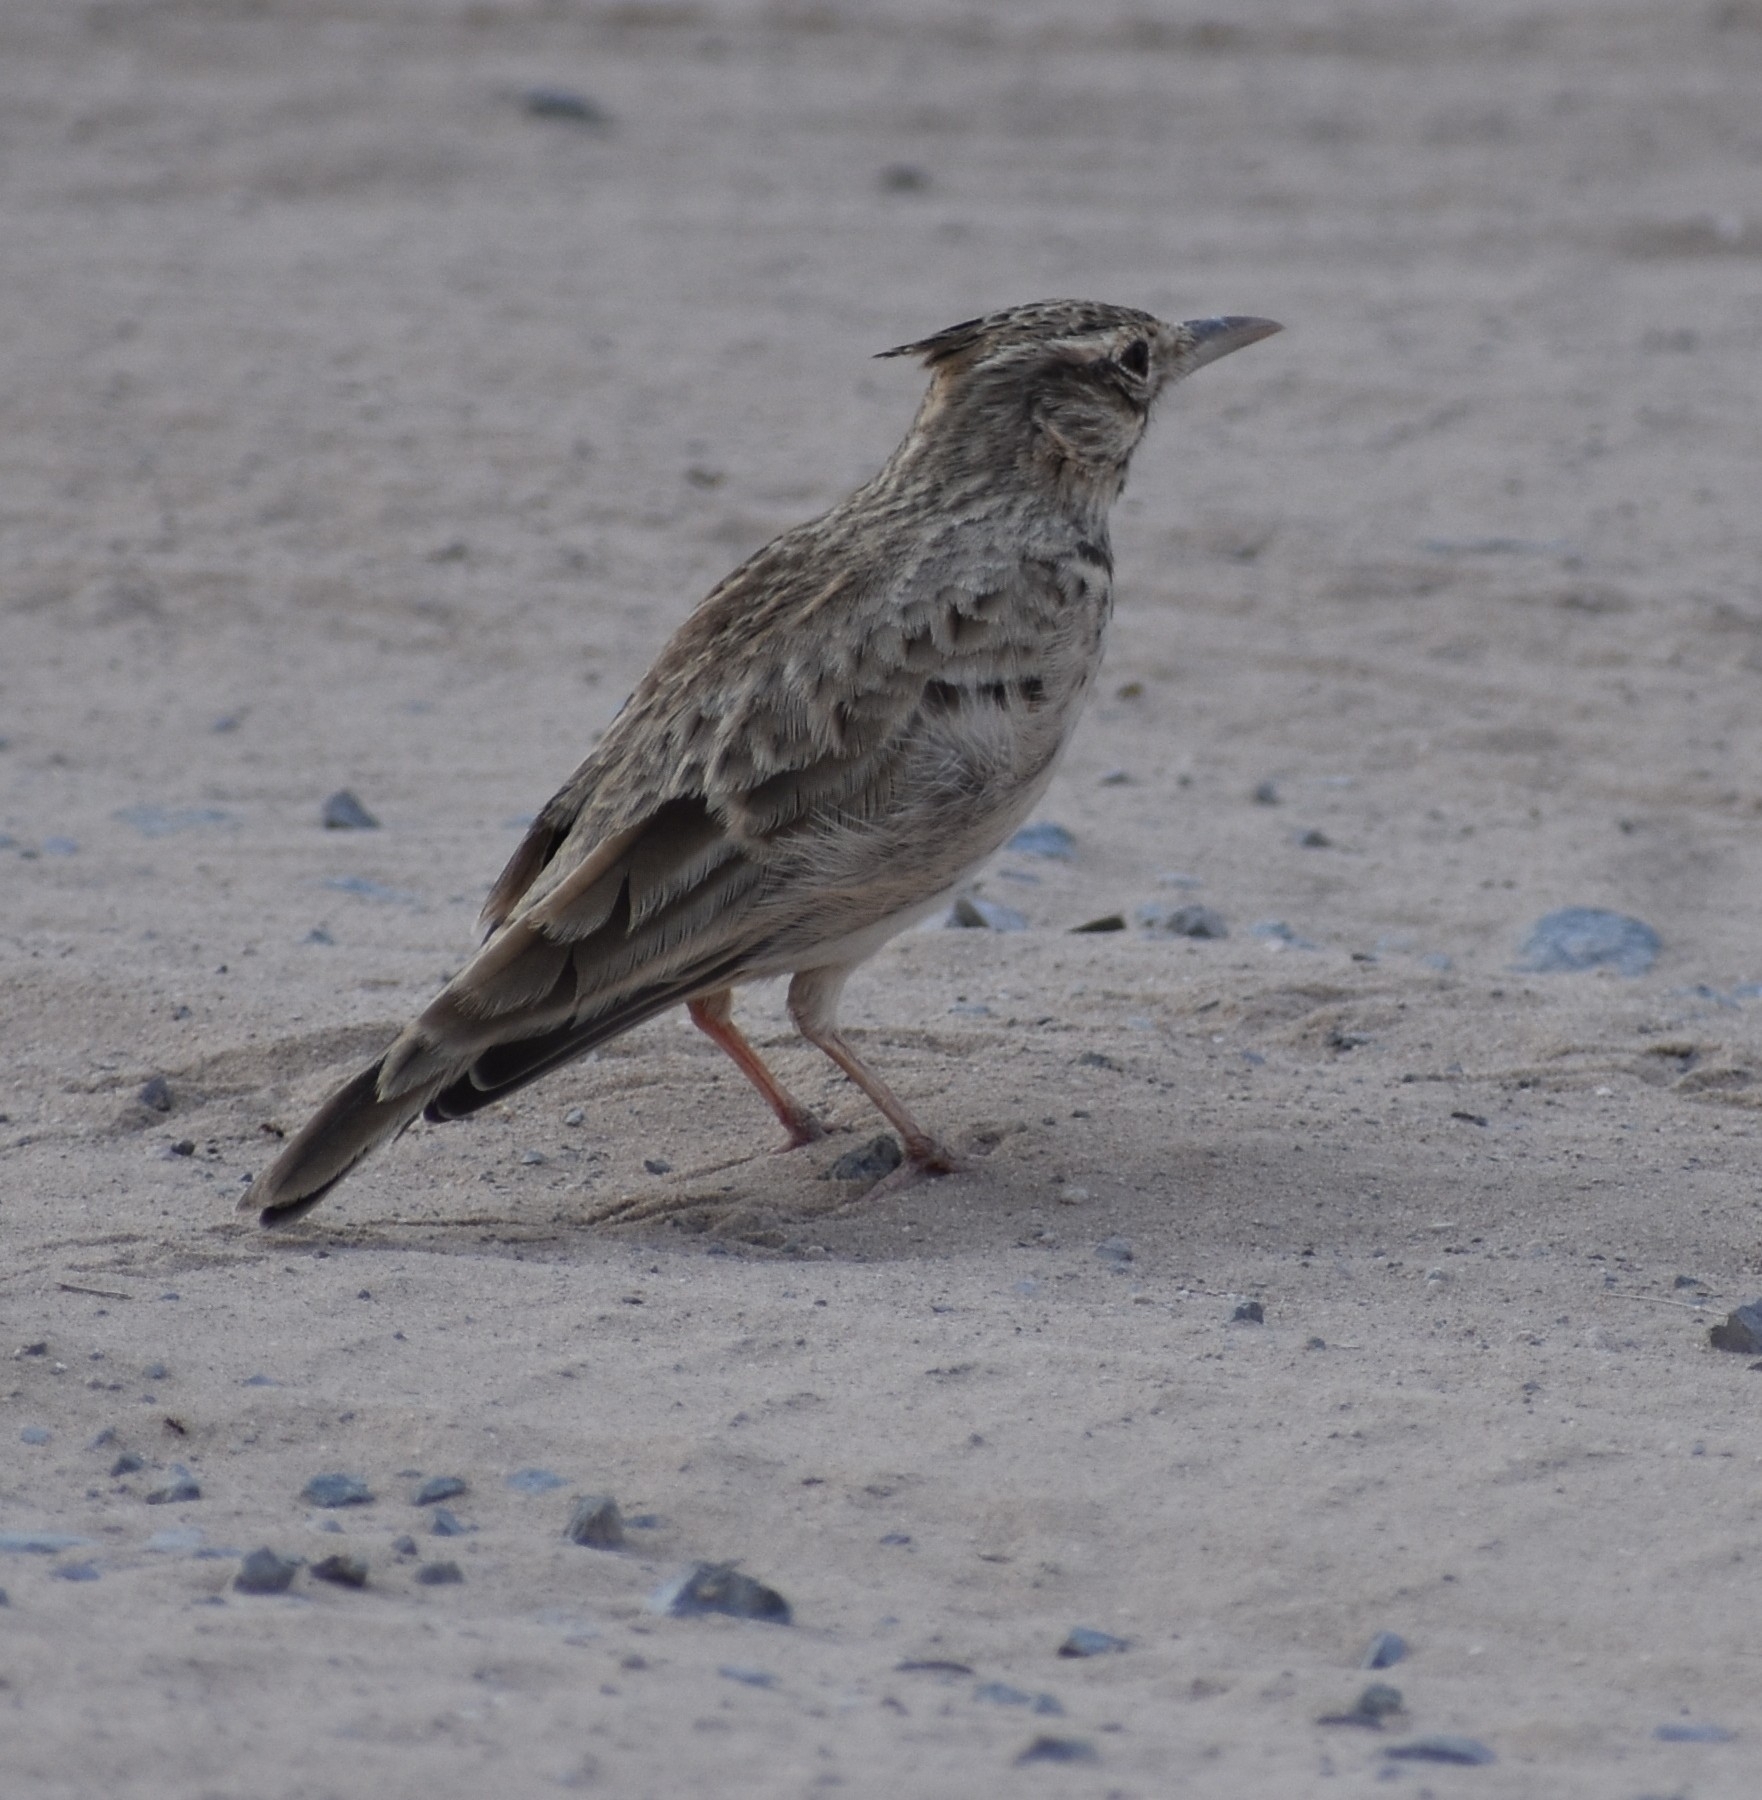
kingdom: Animalia
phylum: Chordata
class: Aves
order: Passeriformes
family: Alaudidae
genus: Galerida
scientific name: Galerida cristata
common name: Crested lark
